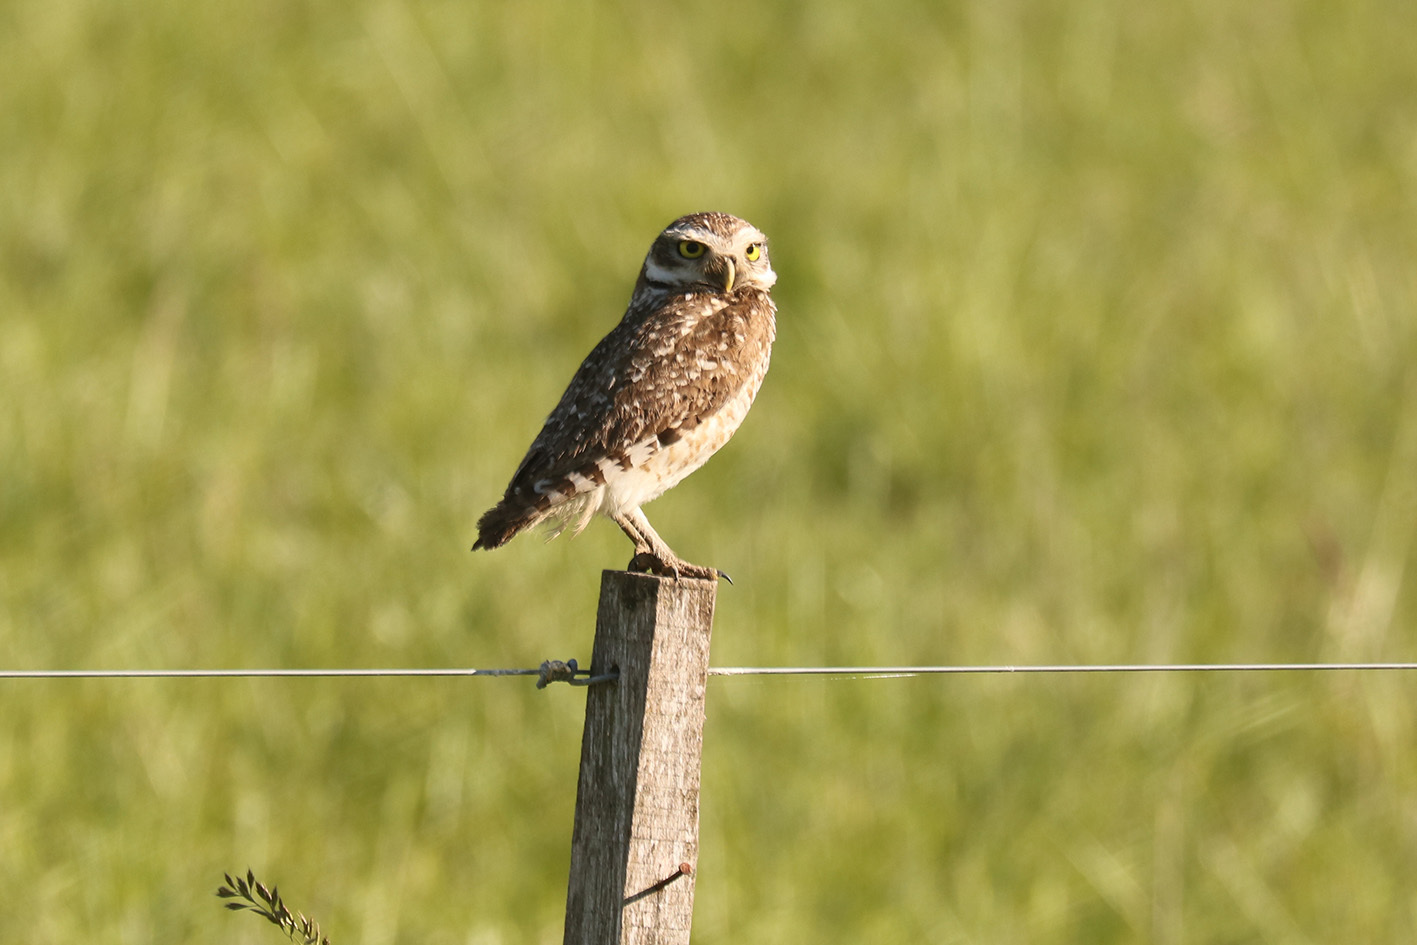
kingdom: Animalia
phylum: Chordata
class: Aves
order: Strigiformes
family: Strigidae
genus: Athene
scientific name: Athene cunicularia
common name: Burrowing owl
